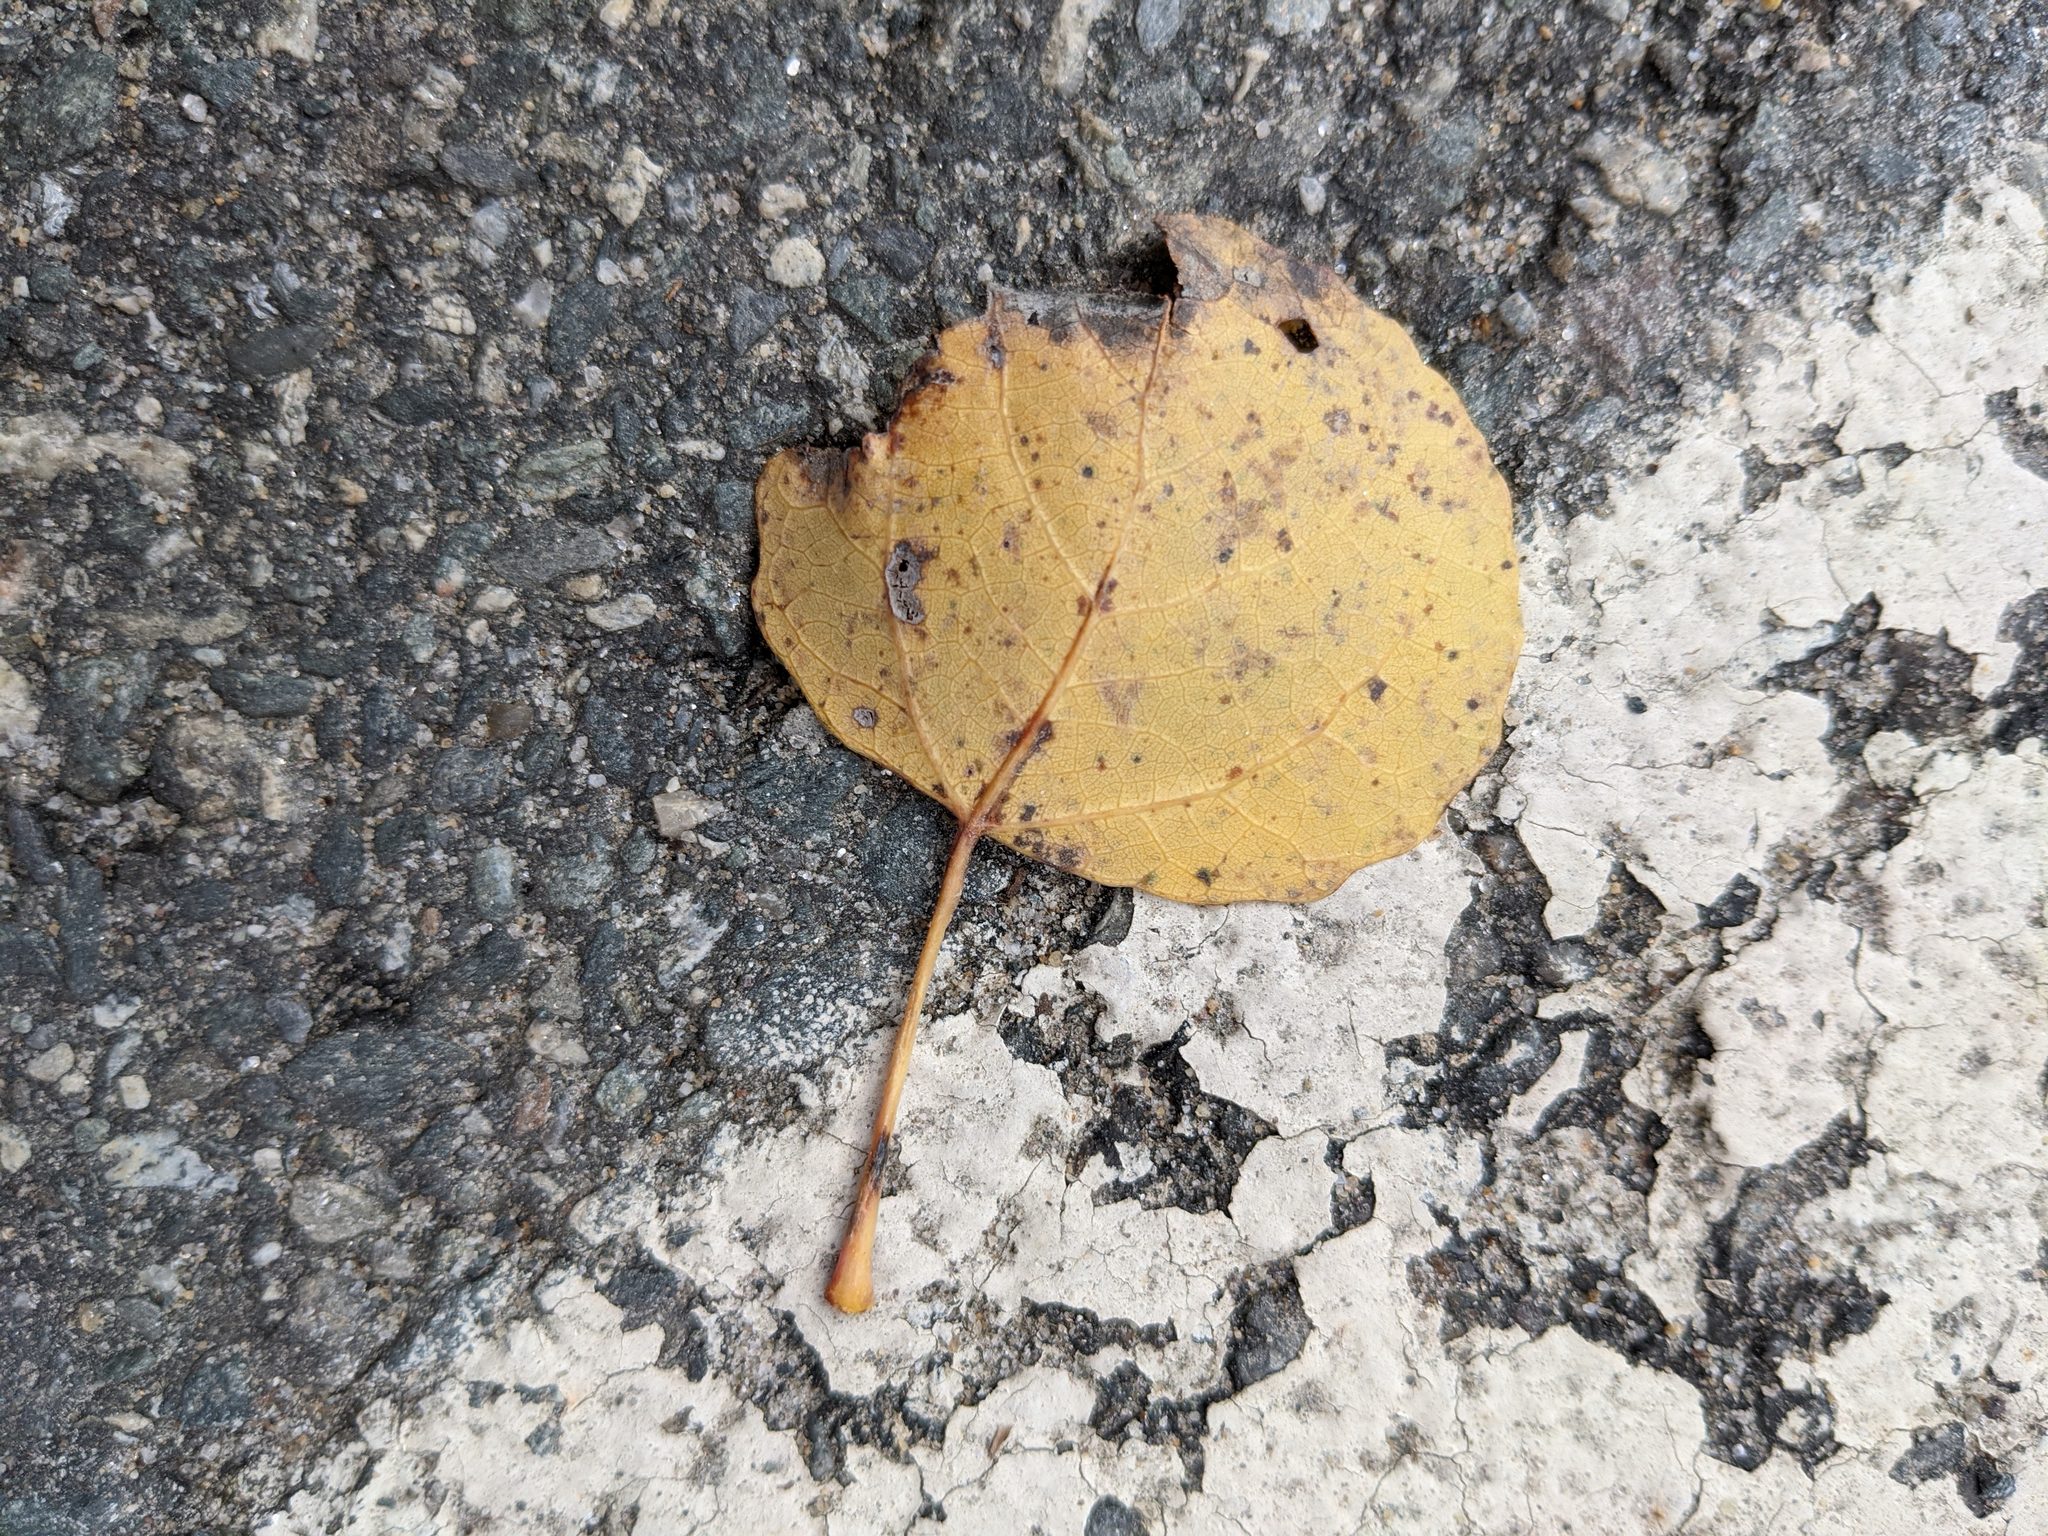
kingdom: Plantae
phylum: Tracheophyta
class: Magnoliopsida
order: Malpighiales
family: Salicaceae
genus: Populus
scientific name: Populus tremuloides
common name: Quaking aspen
